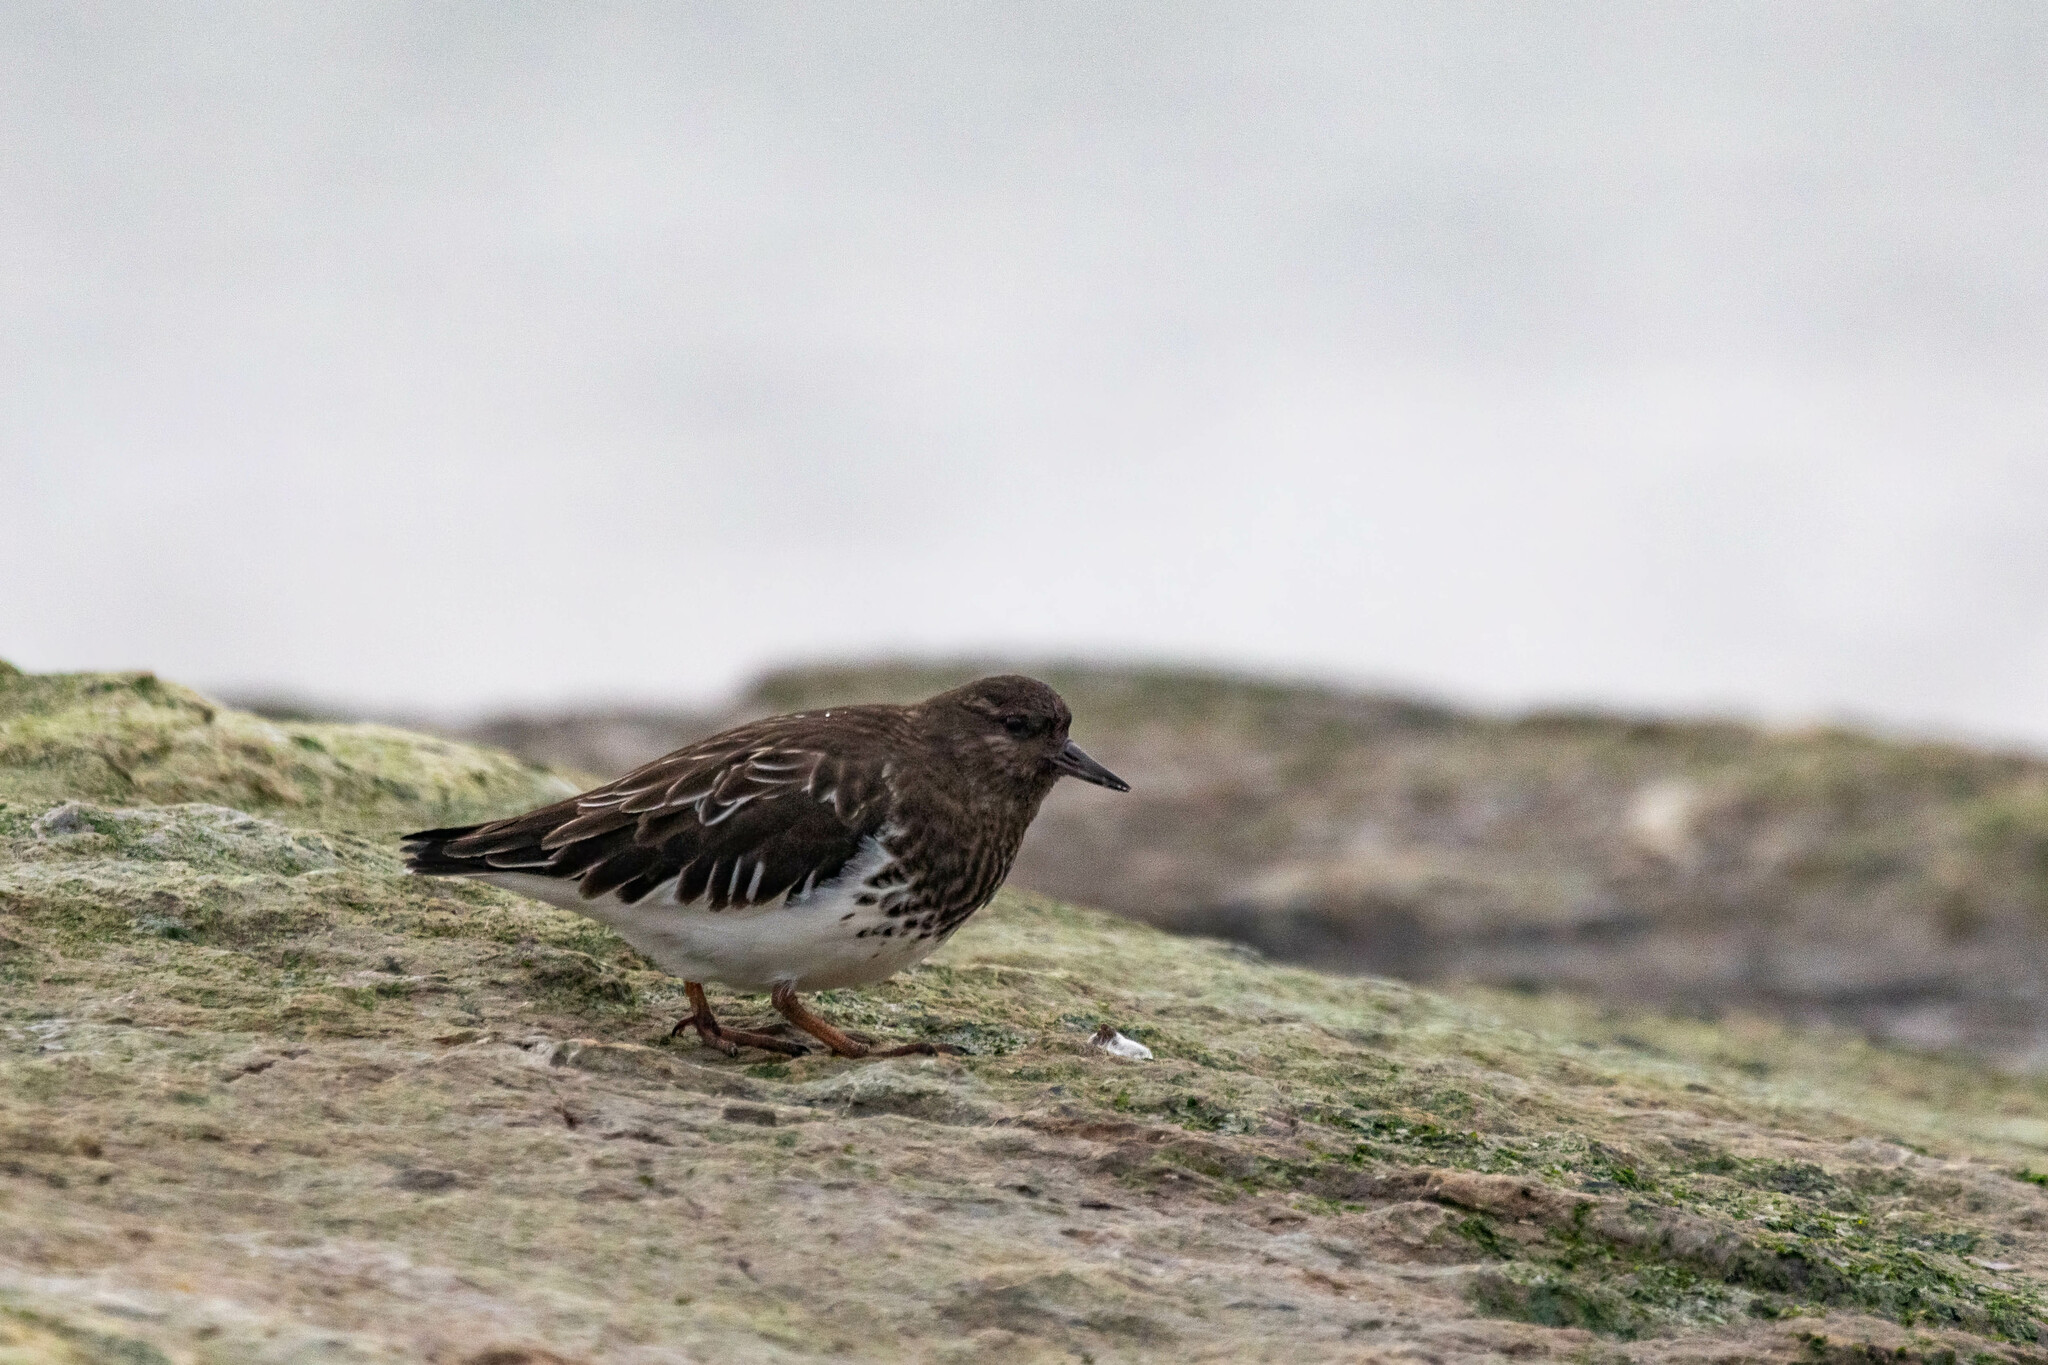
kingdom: Animalia
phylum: Chordata
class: Aves
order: Charadriiformes
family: Scolopacidae
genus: Arenaria
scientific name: Arenaria melanocephala
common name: Black turnstone
